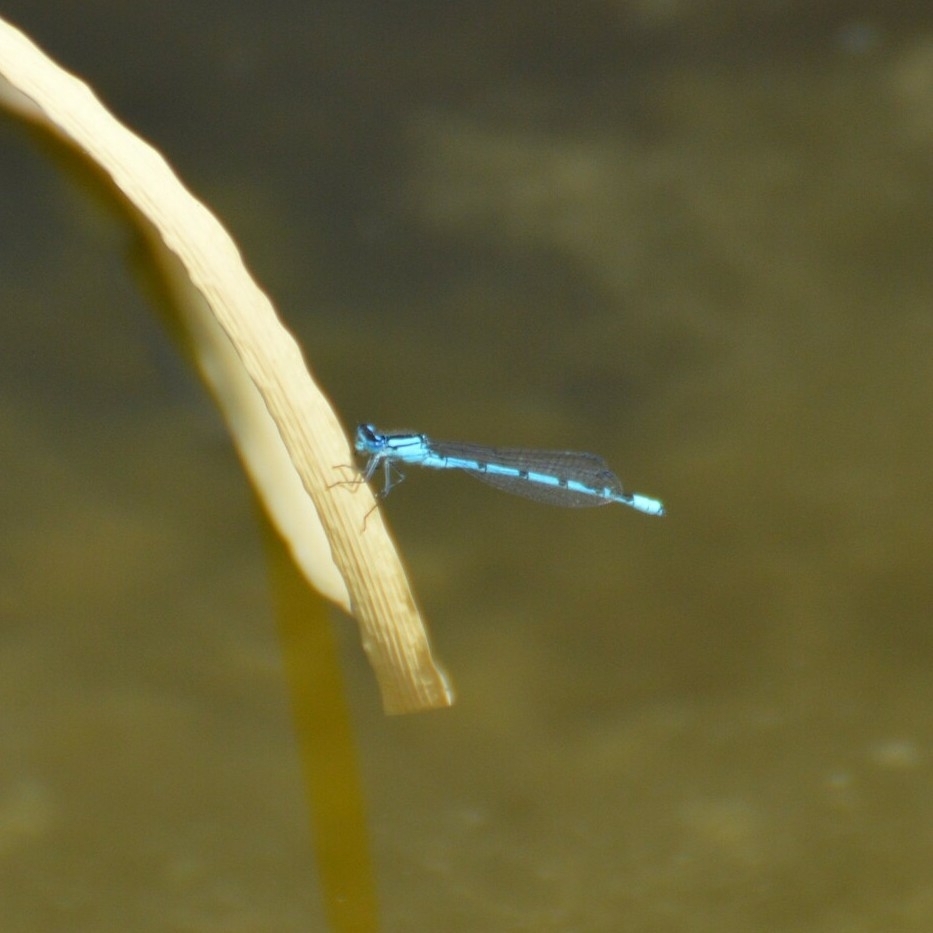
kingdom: Animalia
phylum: Arthropoda
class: Insecta
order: Odonata
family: Coenagrionidae
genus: Enallagma
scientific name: Enallagma cyathigerum
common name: Common blue damselfly
